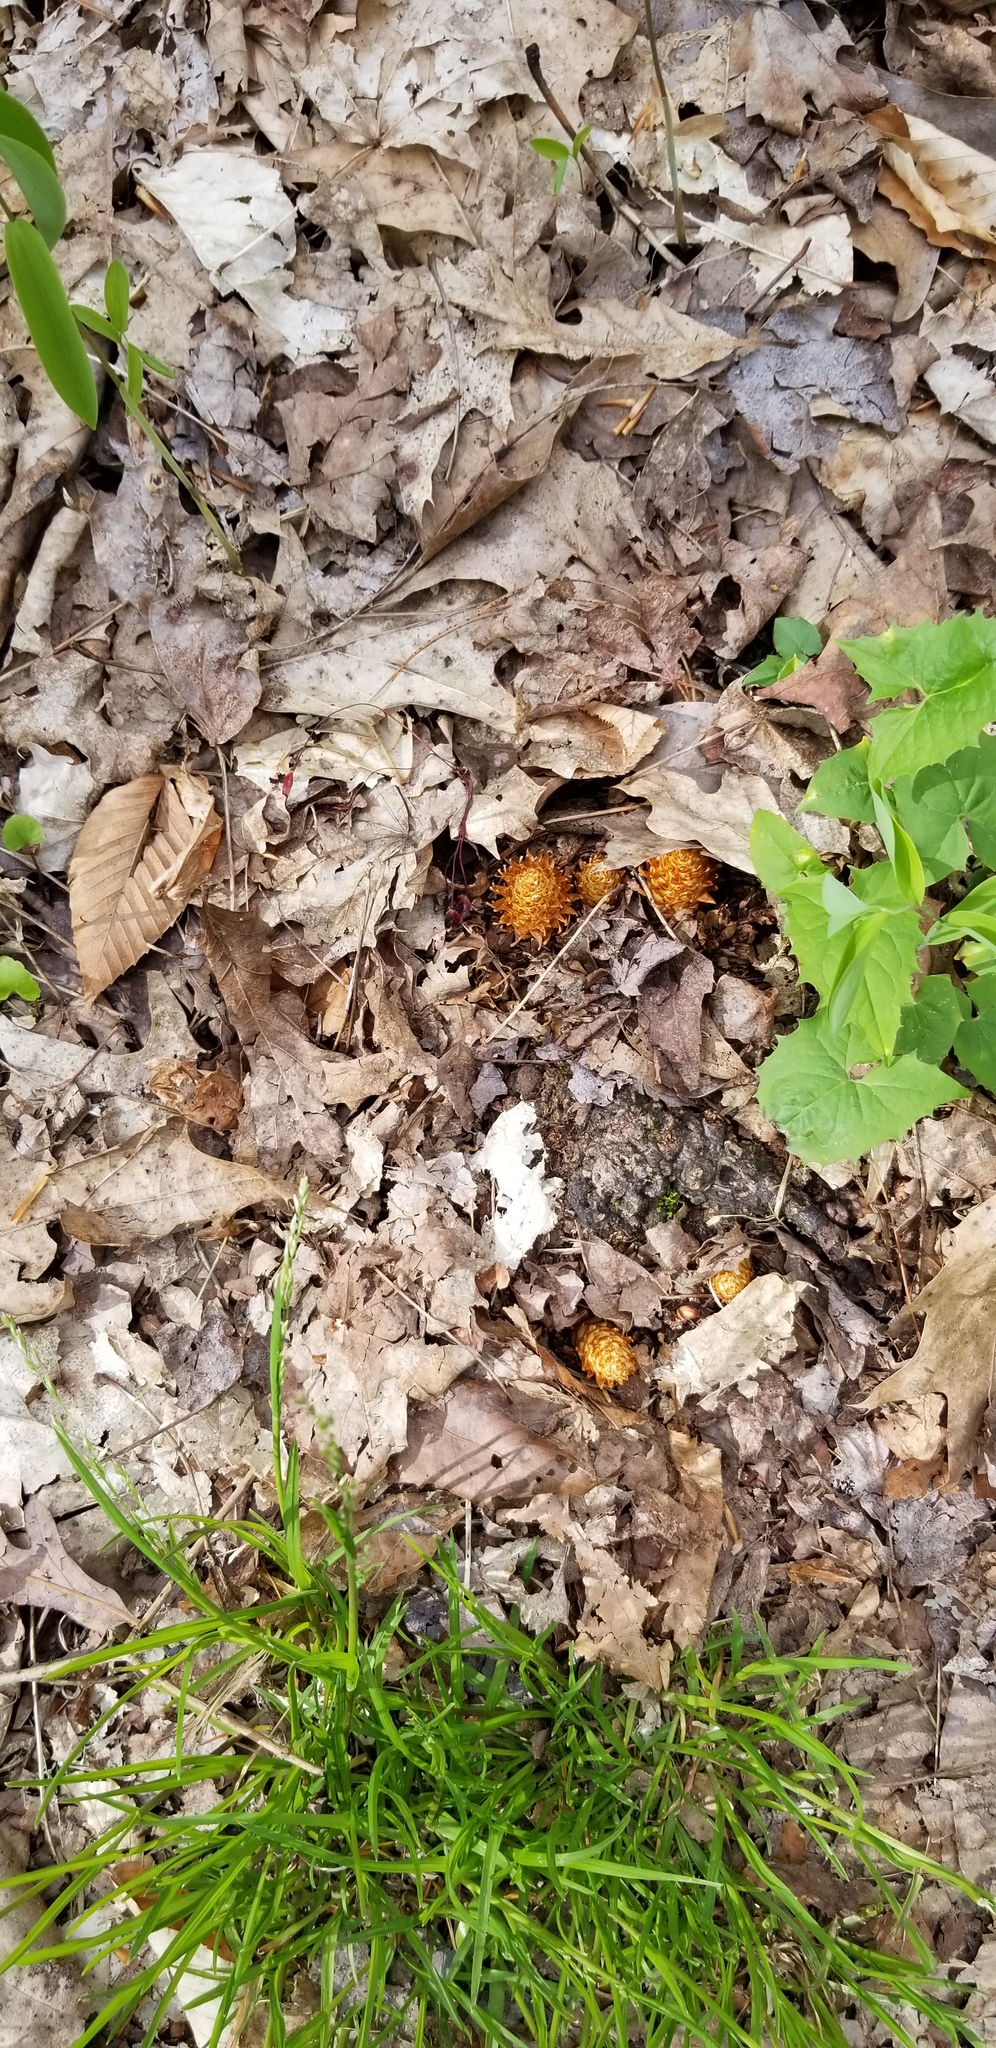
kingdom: Plantae
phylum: Tracheophyta
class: Magnoliopsida
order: Lamiales
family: Orobanchaceae
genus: Conopholis
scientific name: Conopholis americana
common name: American cancer-root
